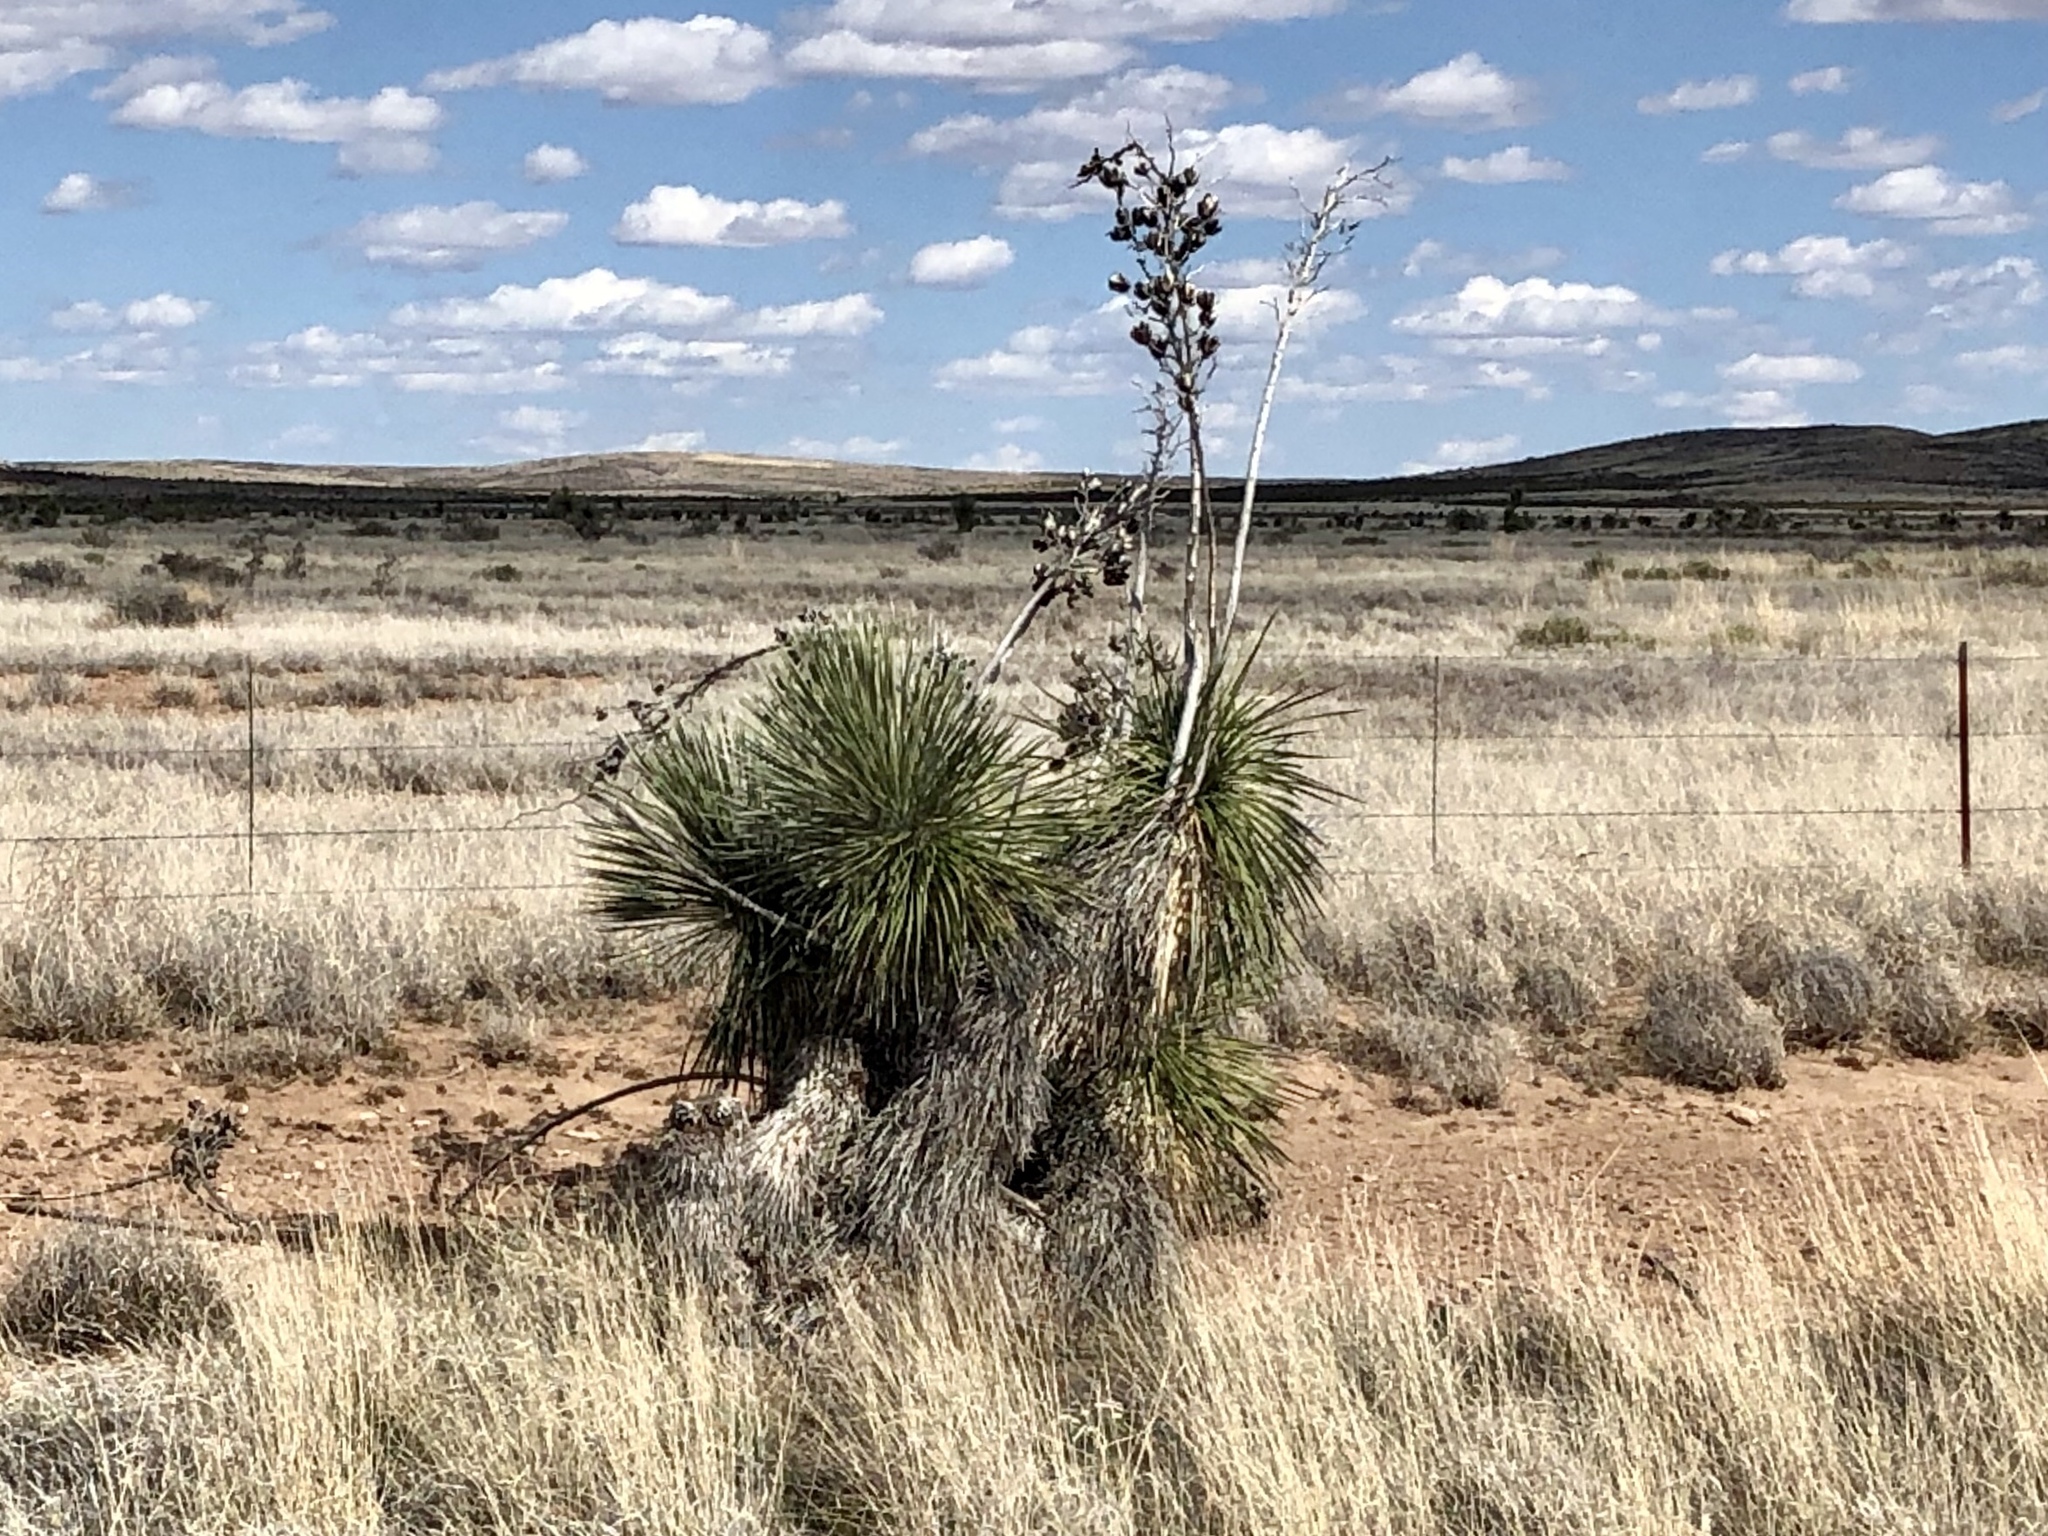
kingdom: Plantae
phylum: Tracheophyta
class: Liliopsida
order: Asparagales
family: Asparagaceae
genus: Yucca
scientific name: Yucca elata
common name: Palmella
